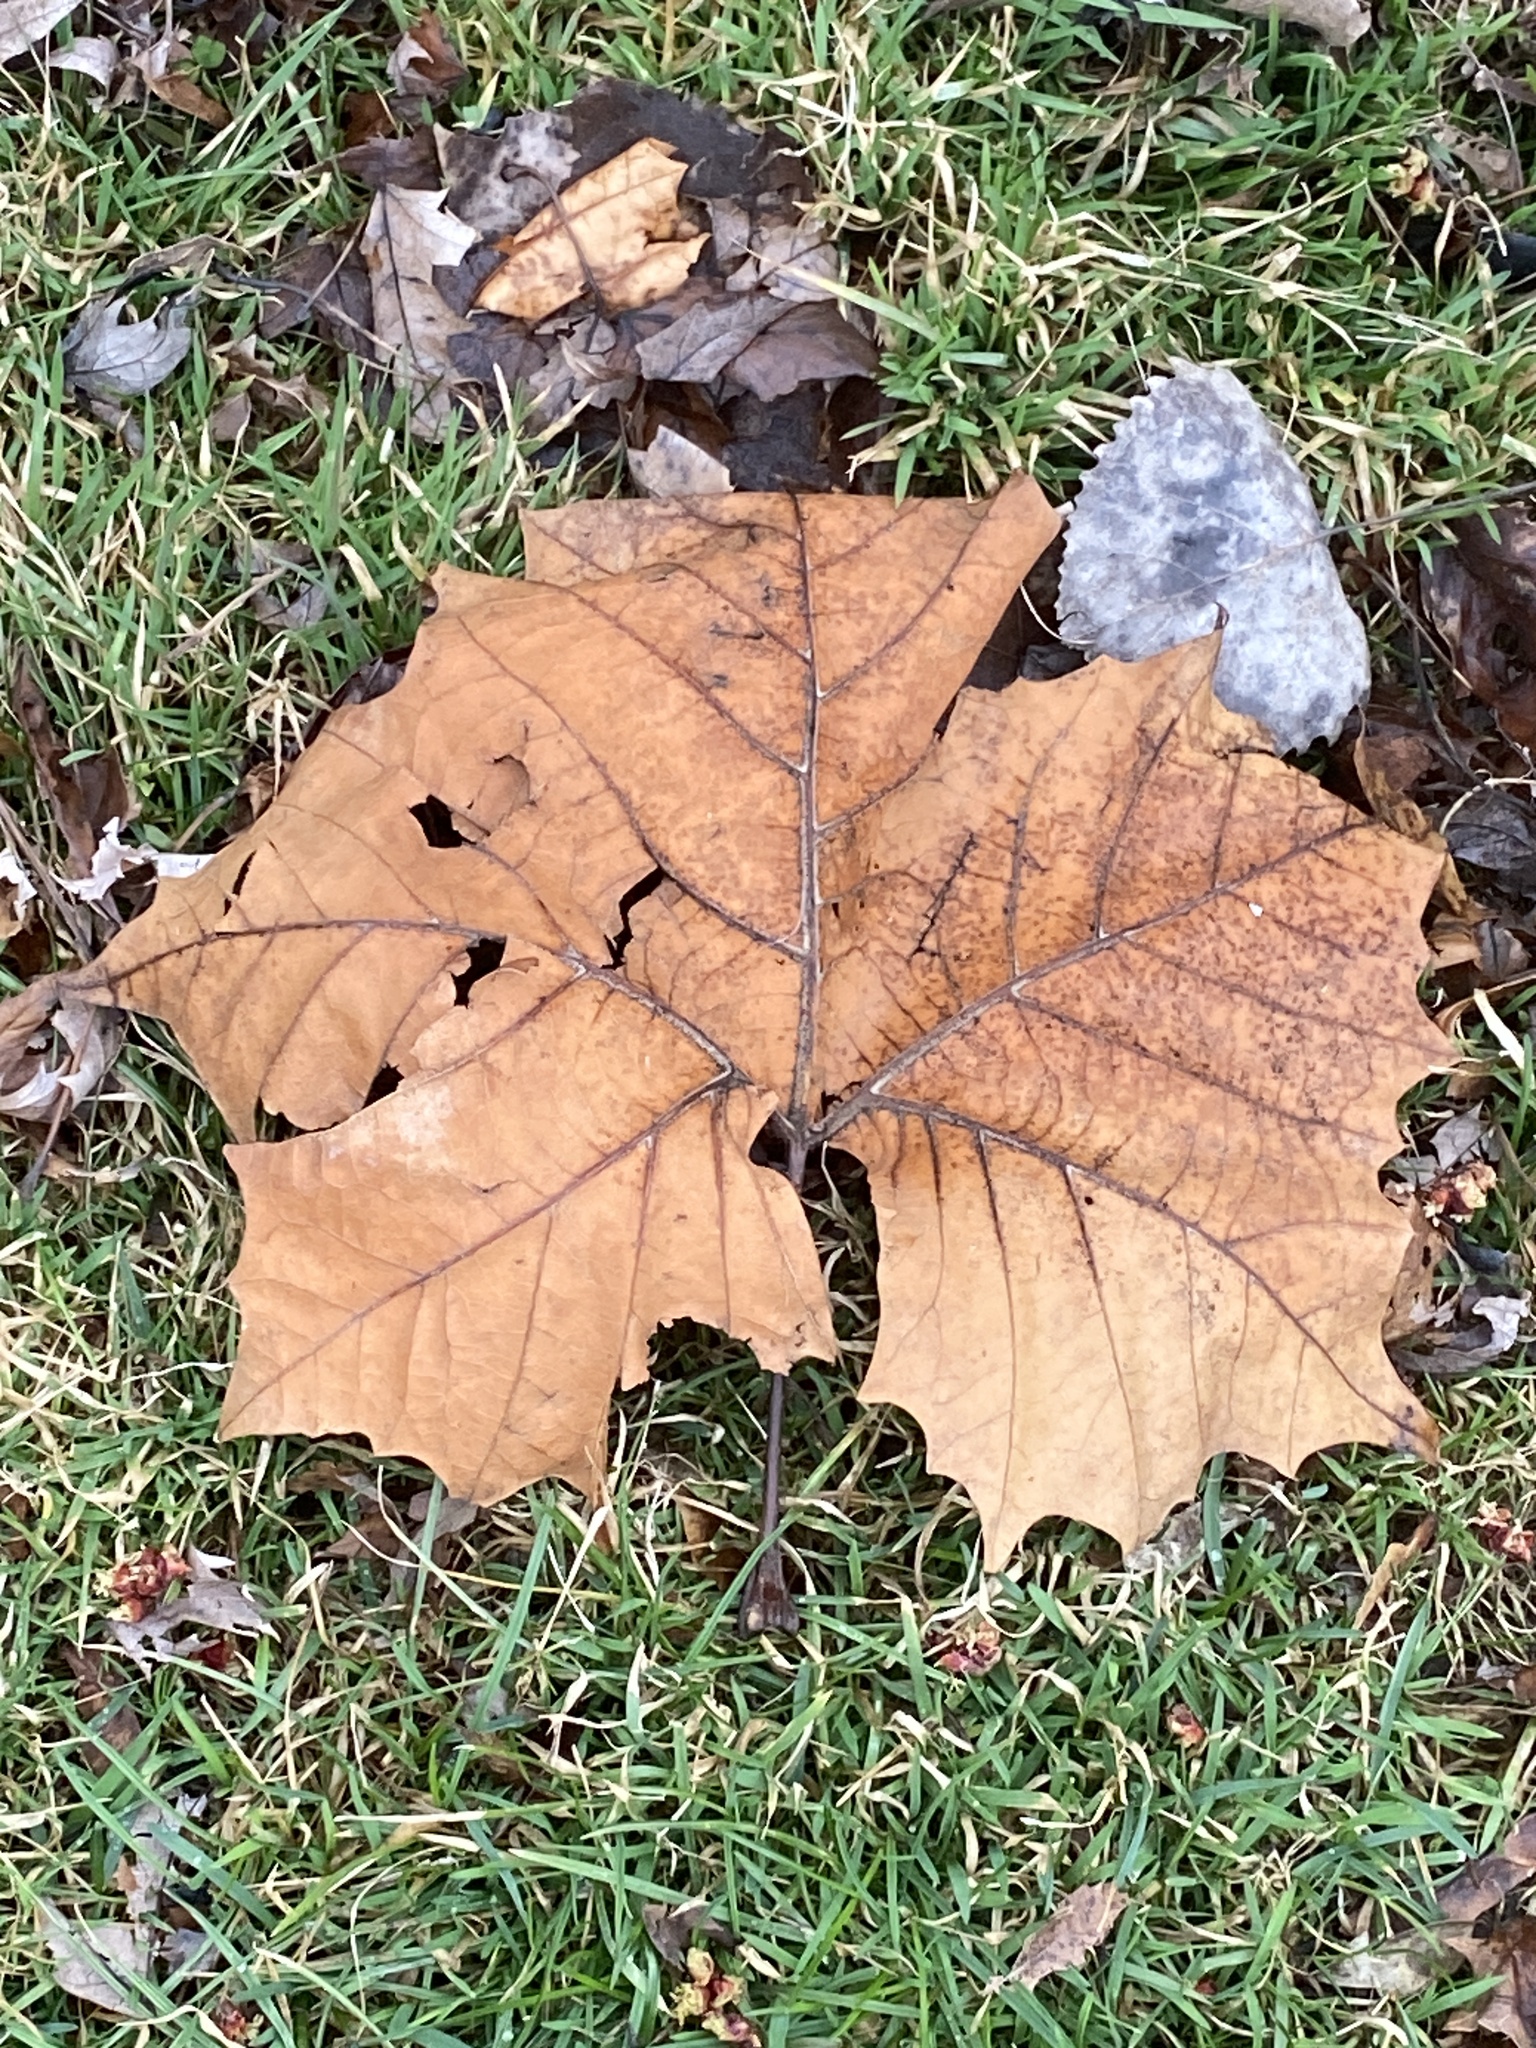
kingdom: Plantae
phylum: Tracheophyta
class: Magnoliopsida
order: Proteales
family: Platanaceae
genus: Platanus
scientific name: Platanus occidentalis
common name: American sycamore
